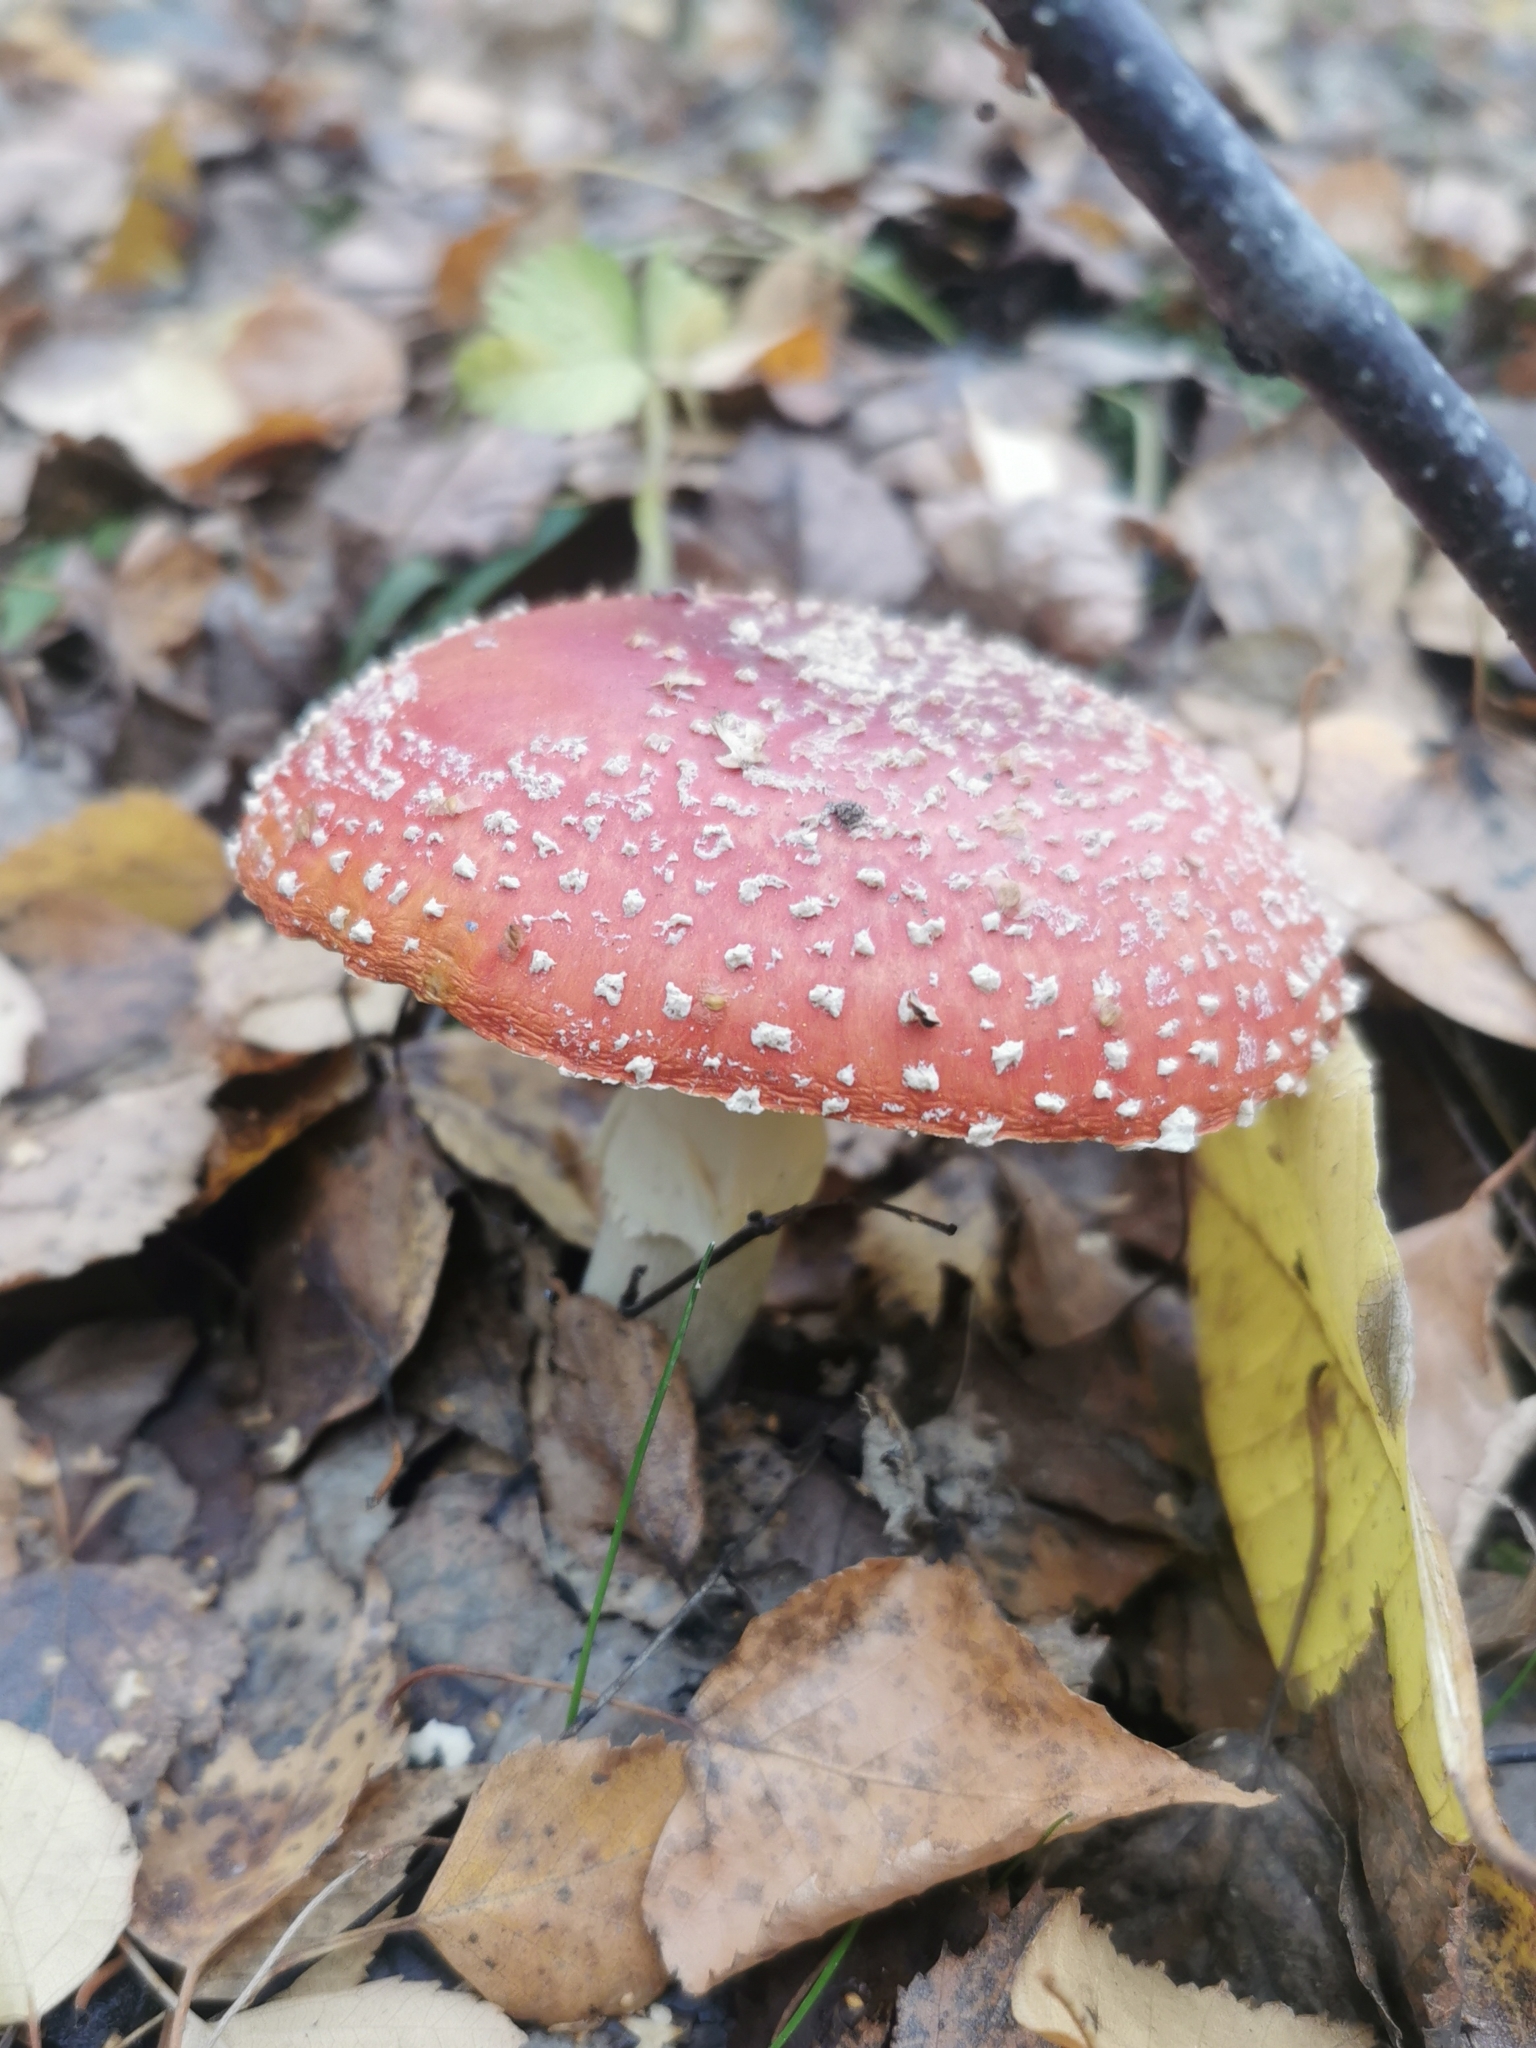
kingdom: Fungi
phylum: Basidiomycota
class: Agaricomycetes
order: Agaricales
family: Amanitaceae
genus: Amanita
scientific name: Amanita muscaria
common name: Fly agaric
